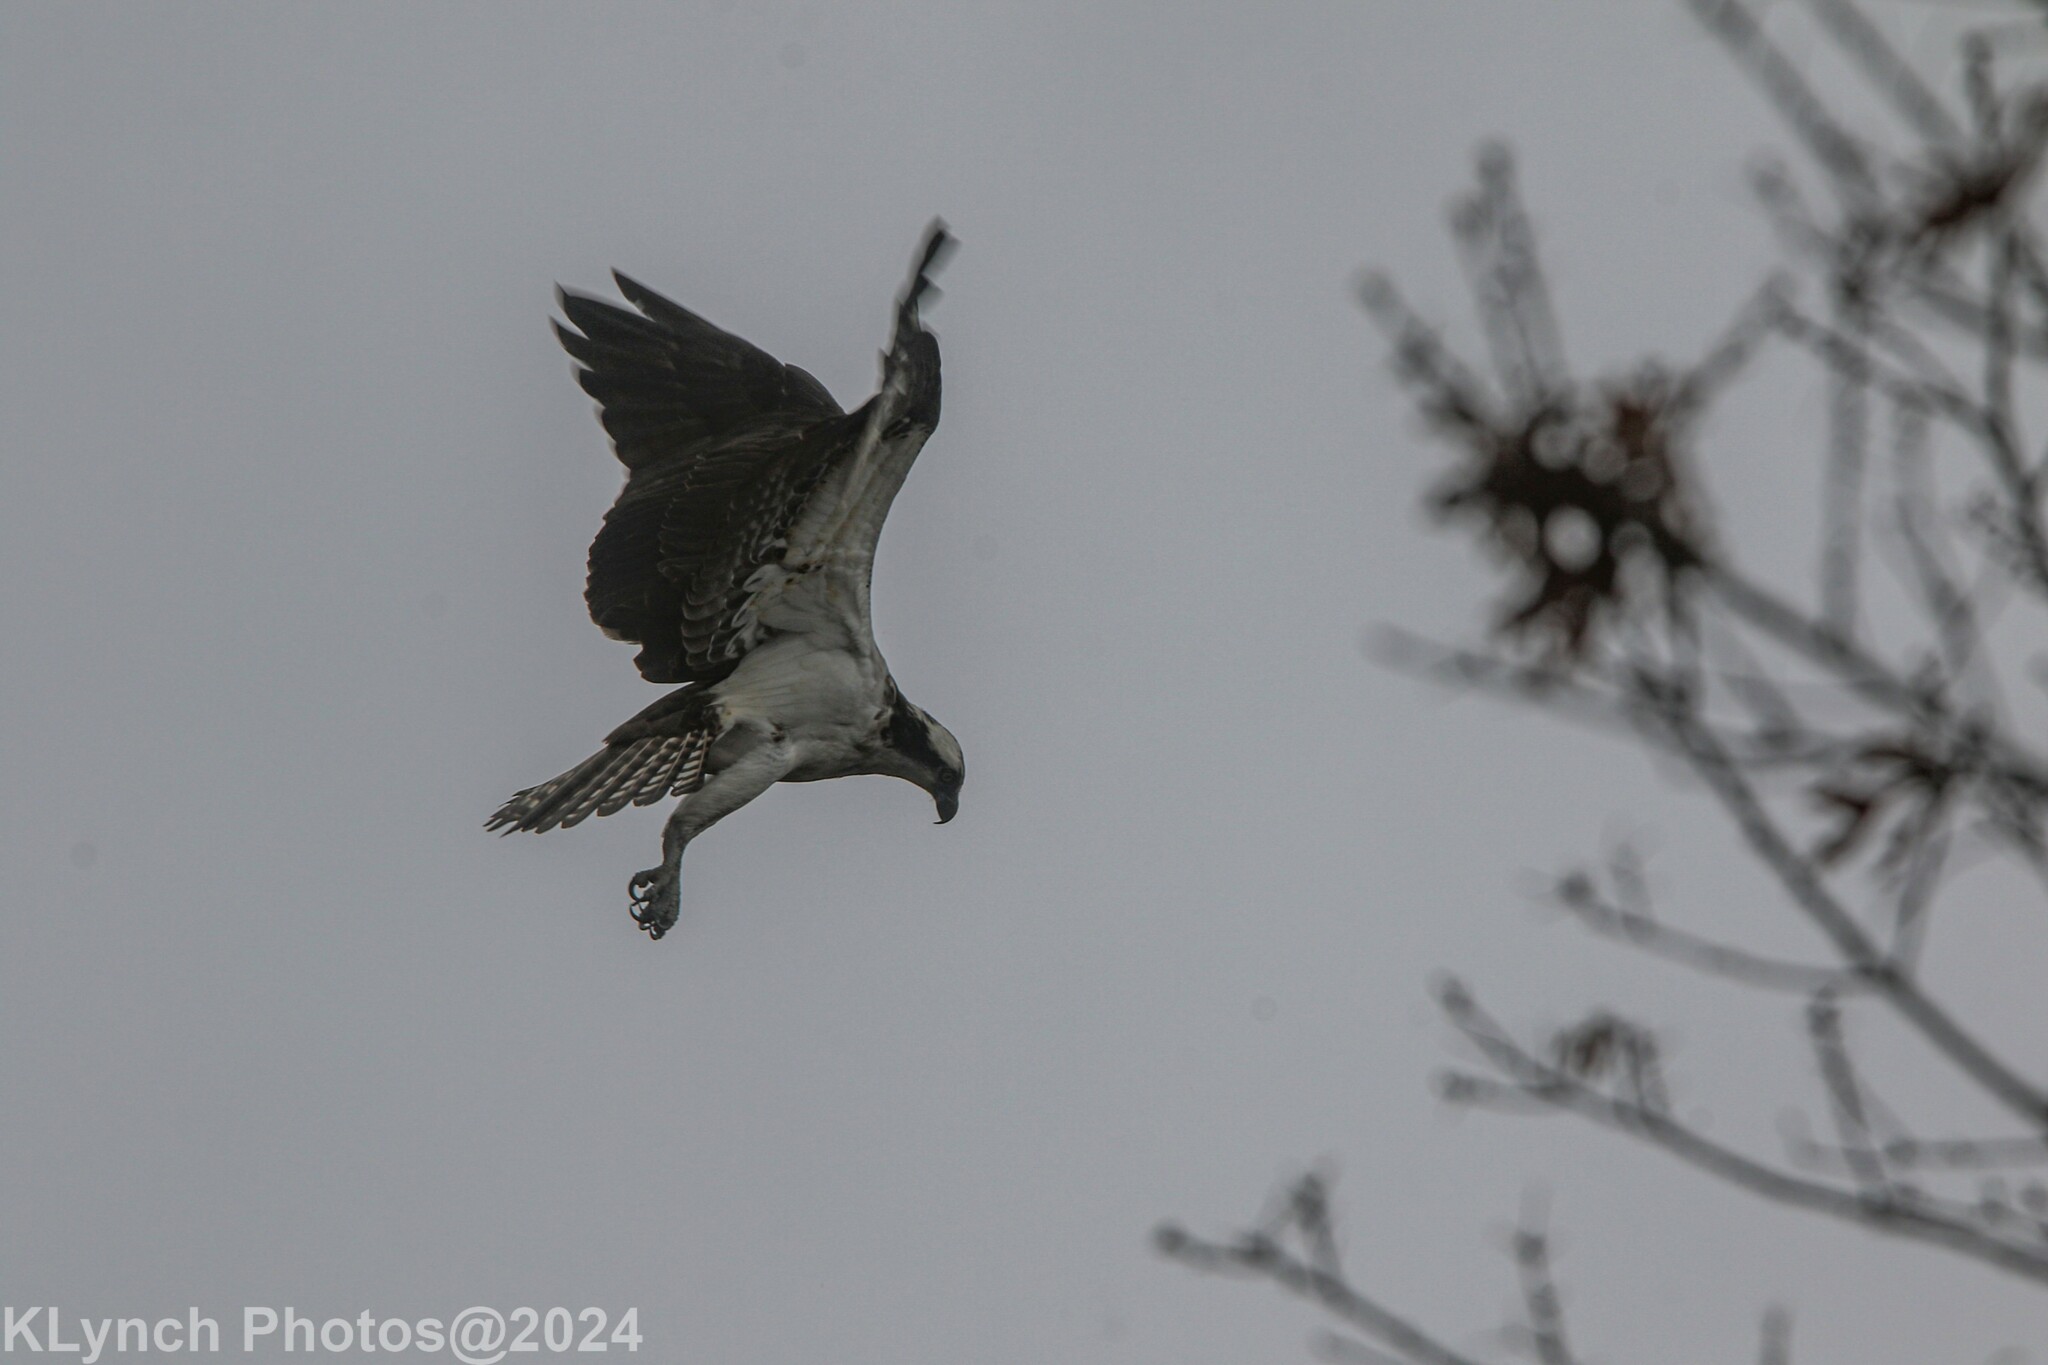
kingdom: Animalia
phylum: Chordata
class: Aves
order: Accipitriformes
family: Pandionidae
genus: Pandion
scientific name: Pandion haliaetus
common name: Osprey
